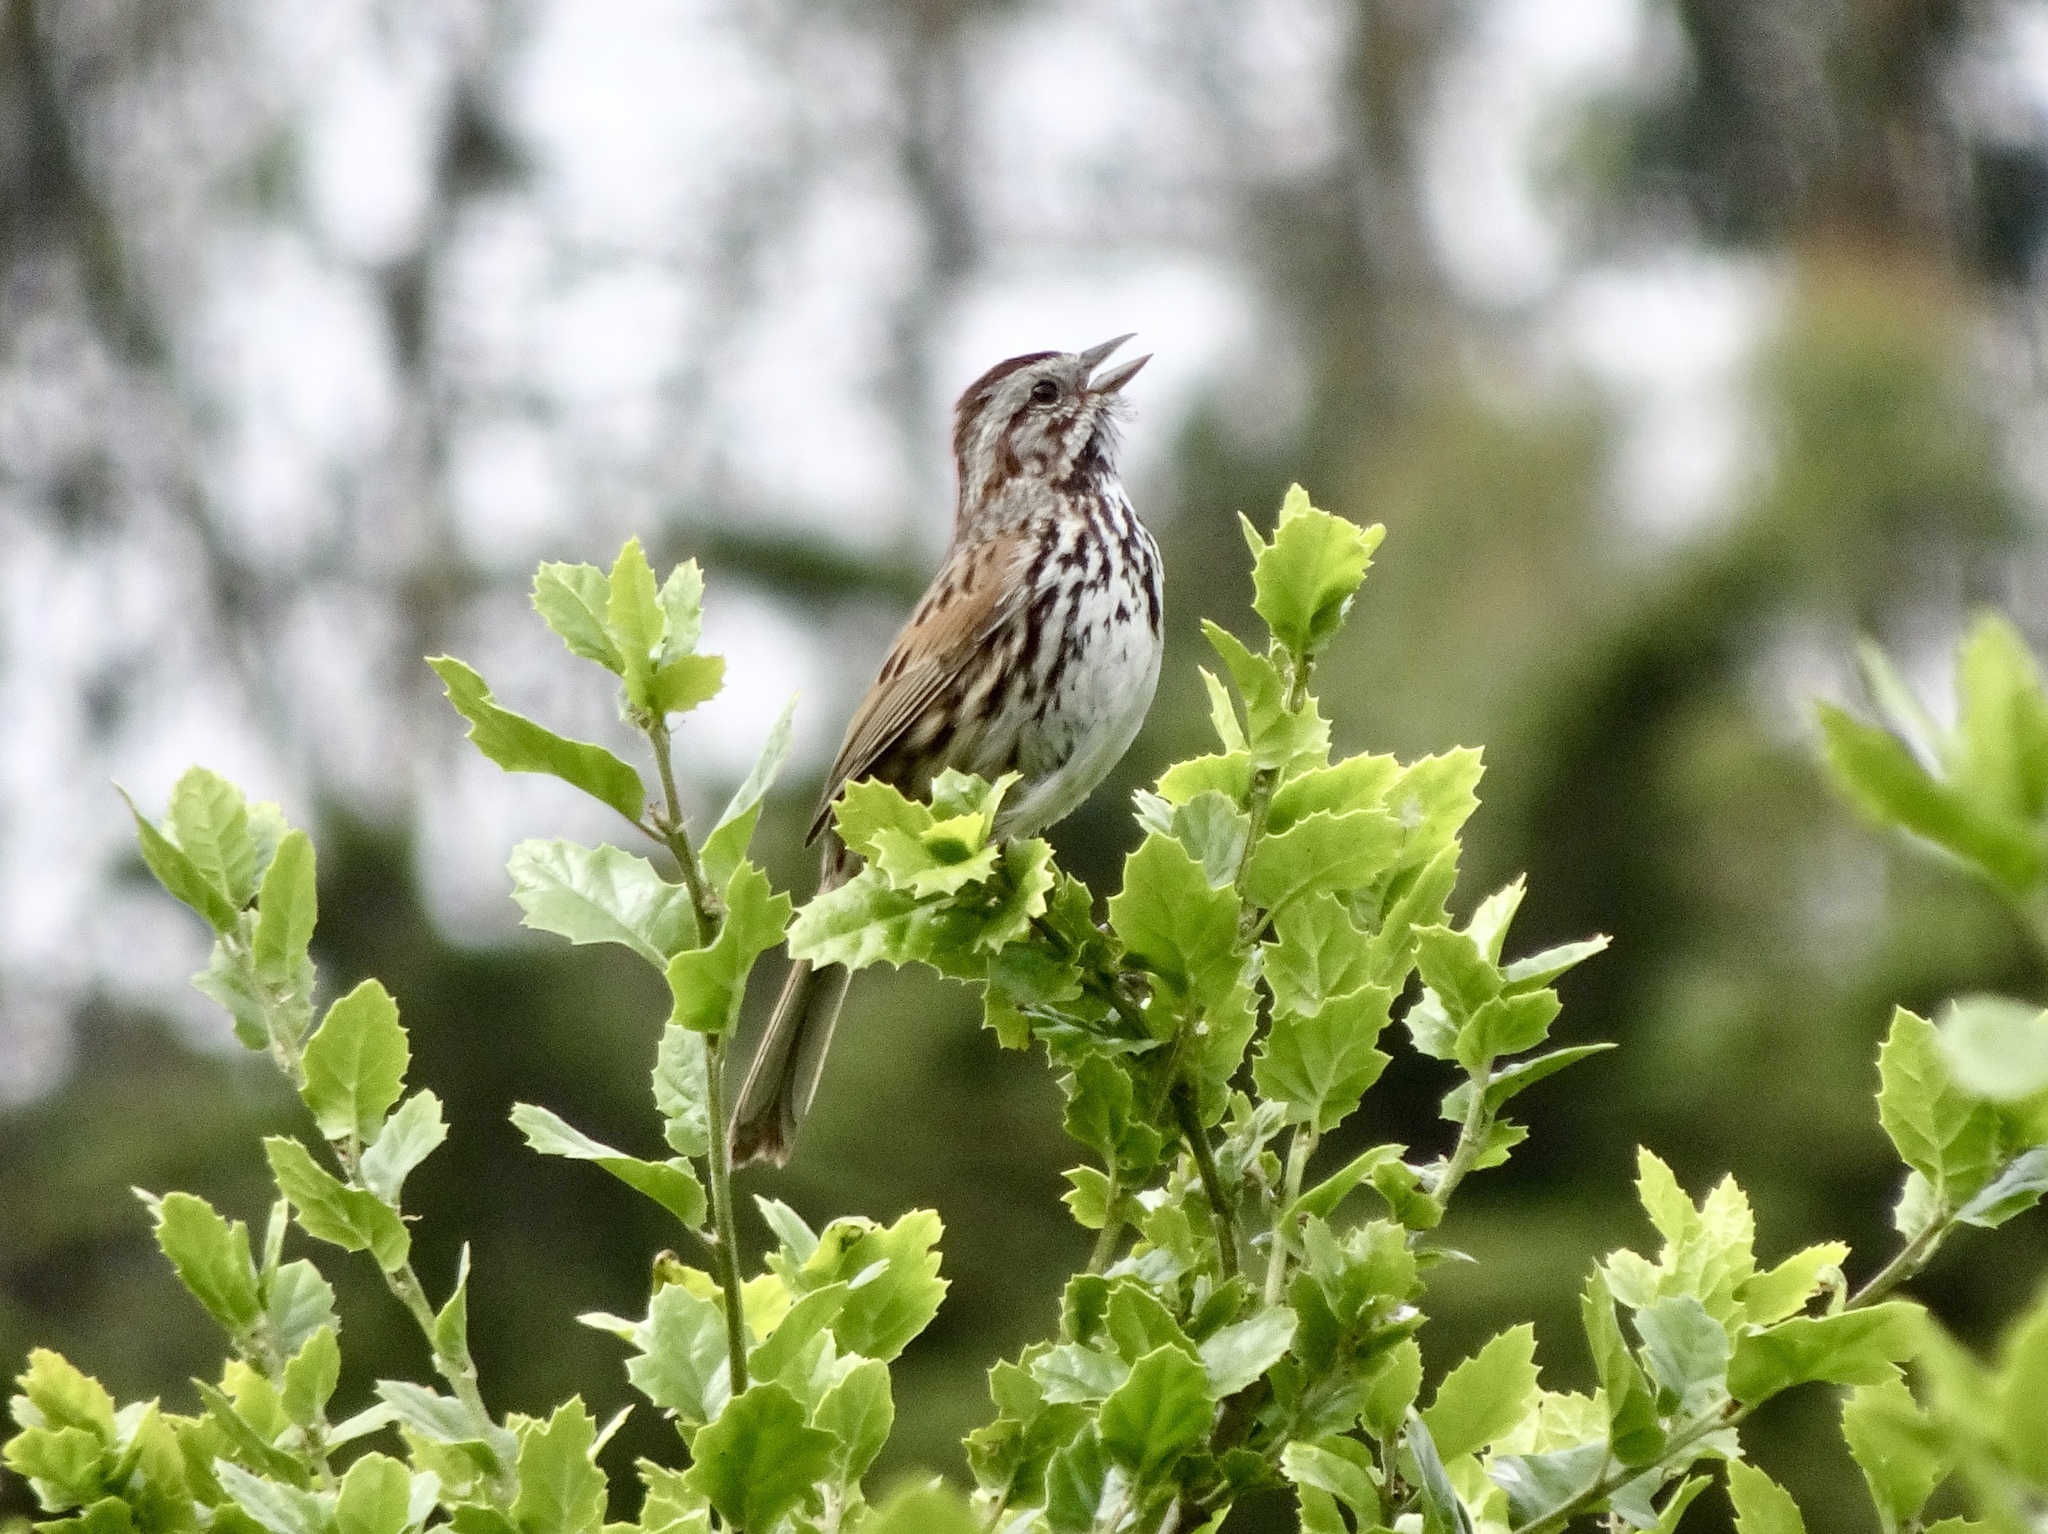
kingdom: Animalia
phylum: Chordata
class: Aves
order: Passeriformes
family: Passerellidae
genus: Melospiza
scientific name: Melospiza melodia
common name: Song sparrow
